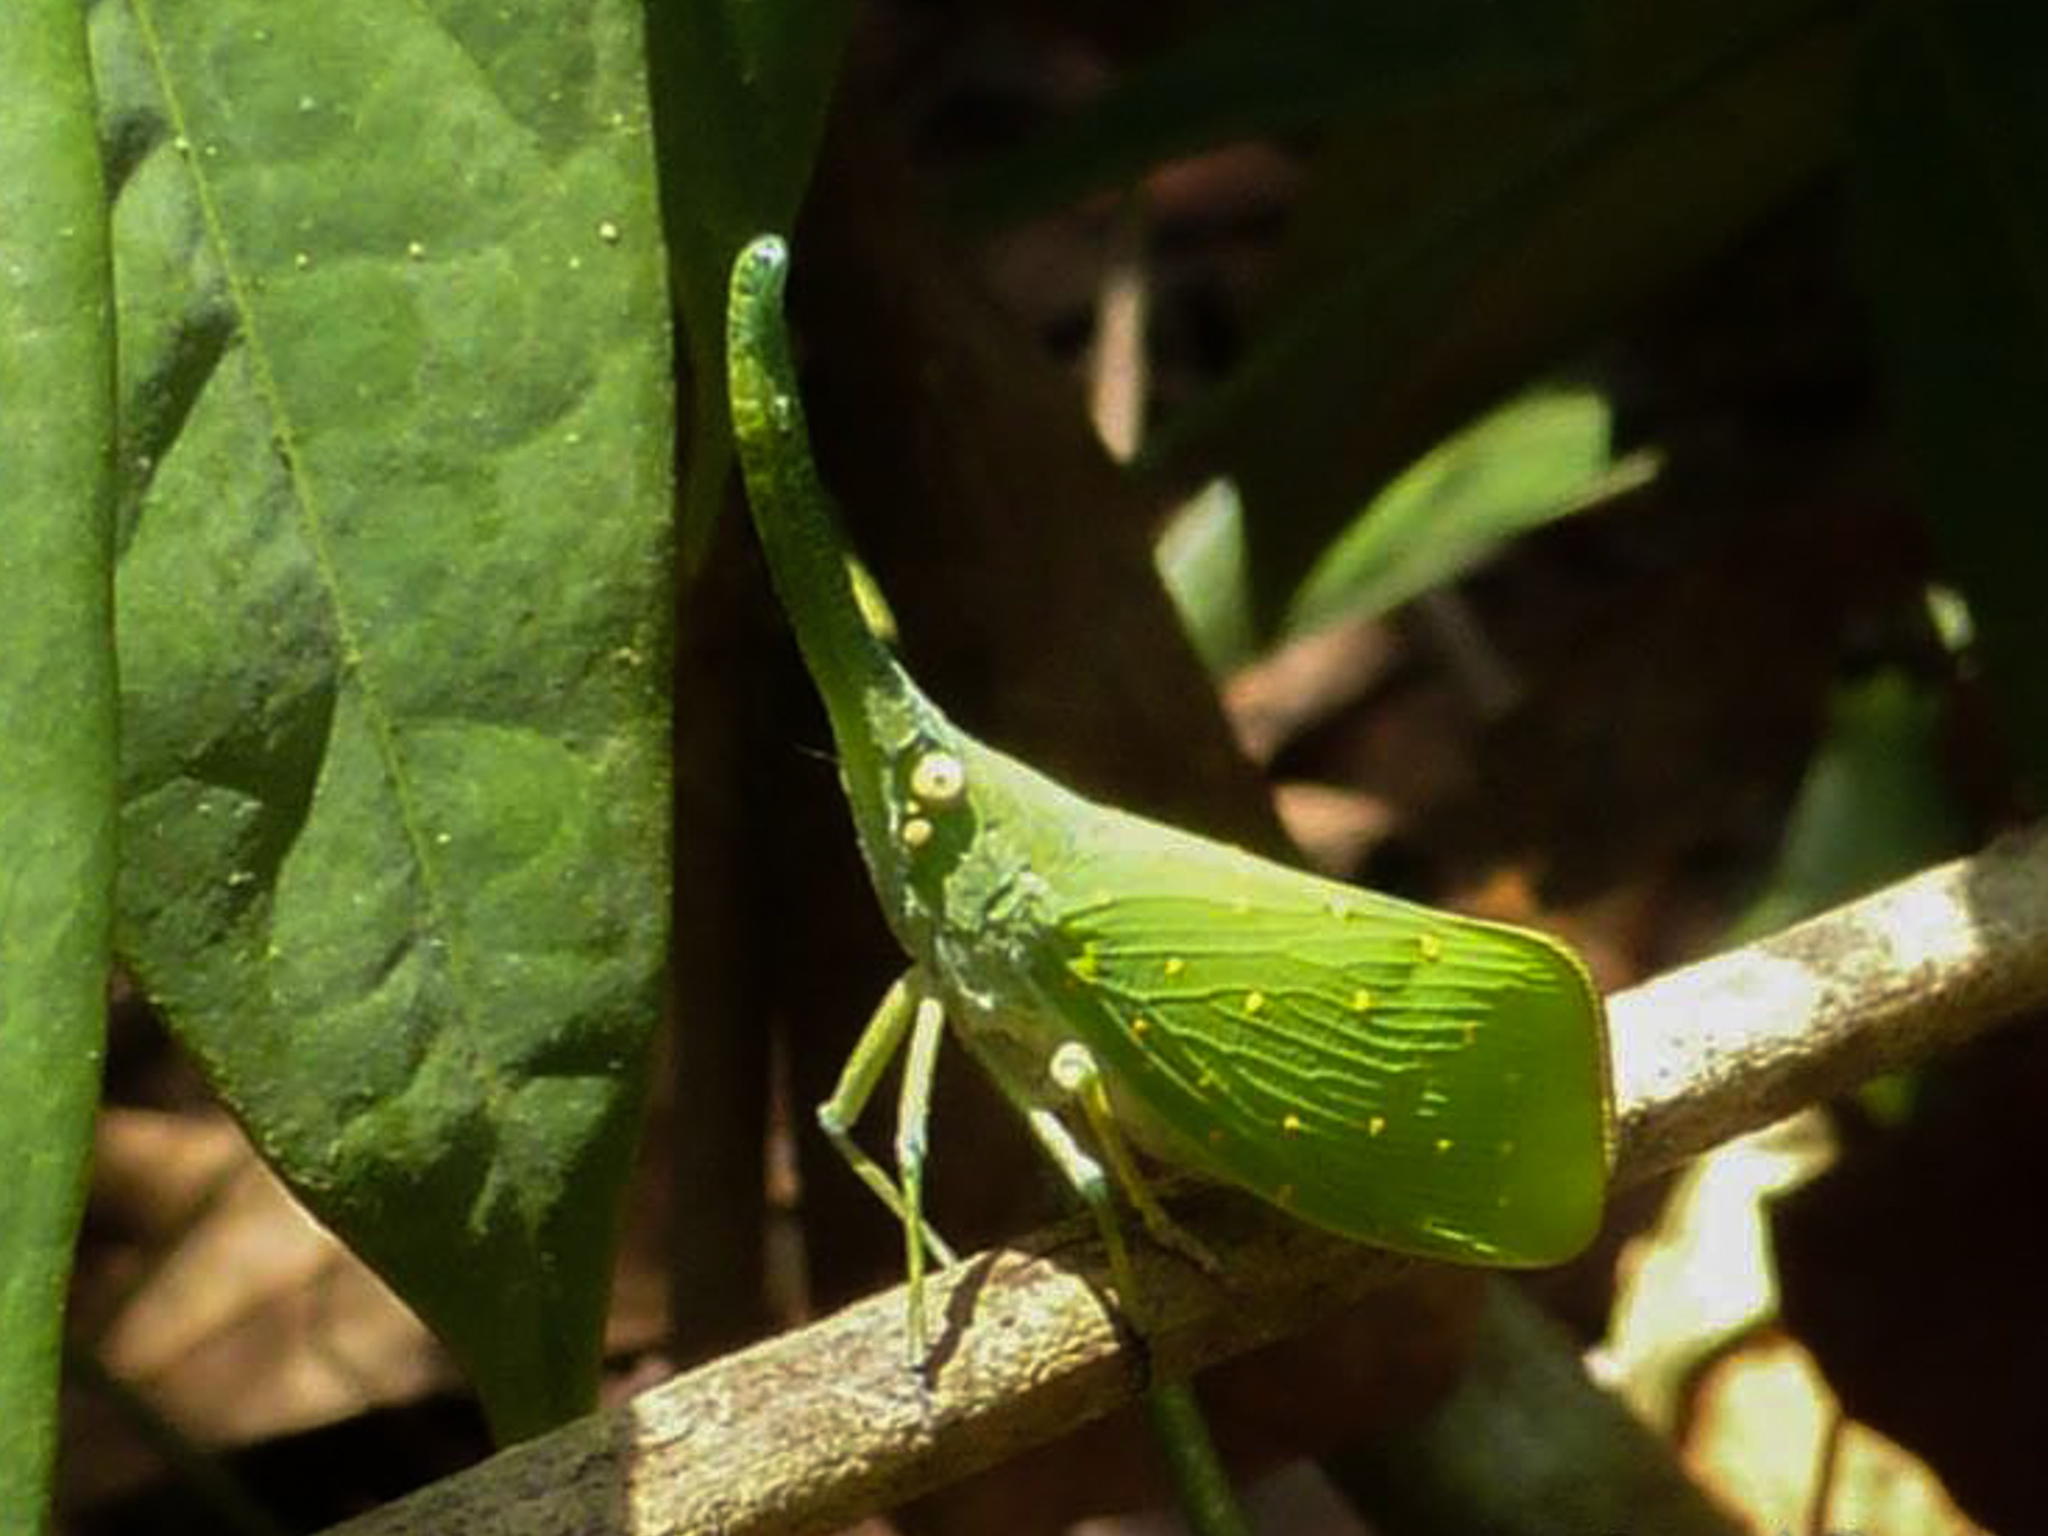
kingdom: Animalia
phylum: Arthropoda
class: Insecta
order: Hemiptera
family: Fulgoridae
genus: Pyrops
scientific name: Pyrops itoi
